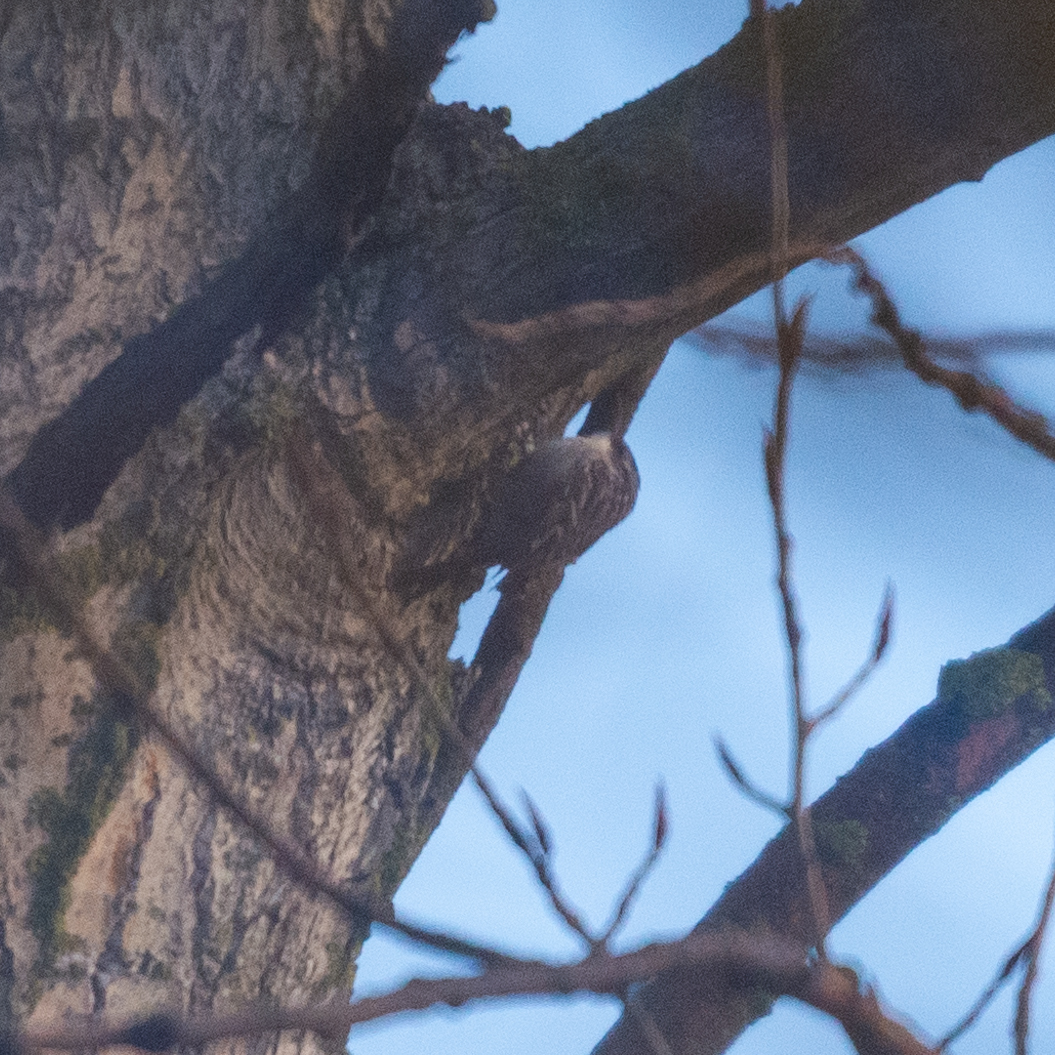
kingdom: Animalia
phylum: Chordata
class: Aves
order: Passeriformes
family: Certhiidae
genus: Certhia
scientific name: Certhia brachydactyla
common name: Short-toed treecreeper
